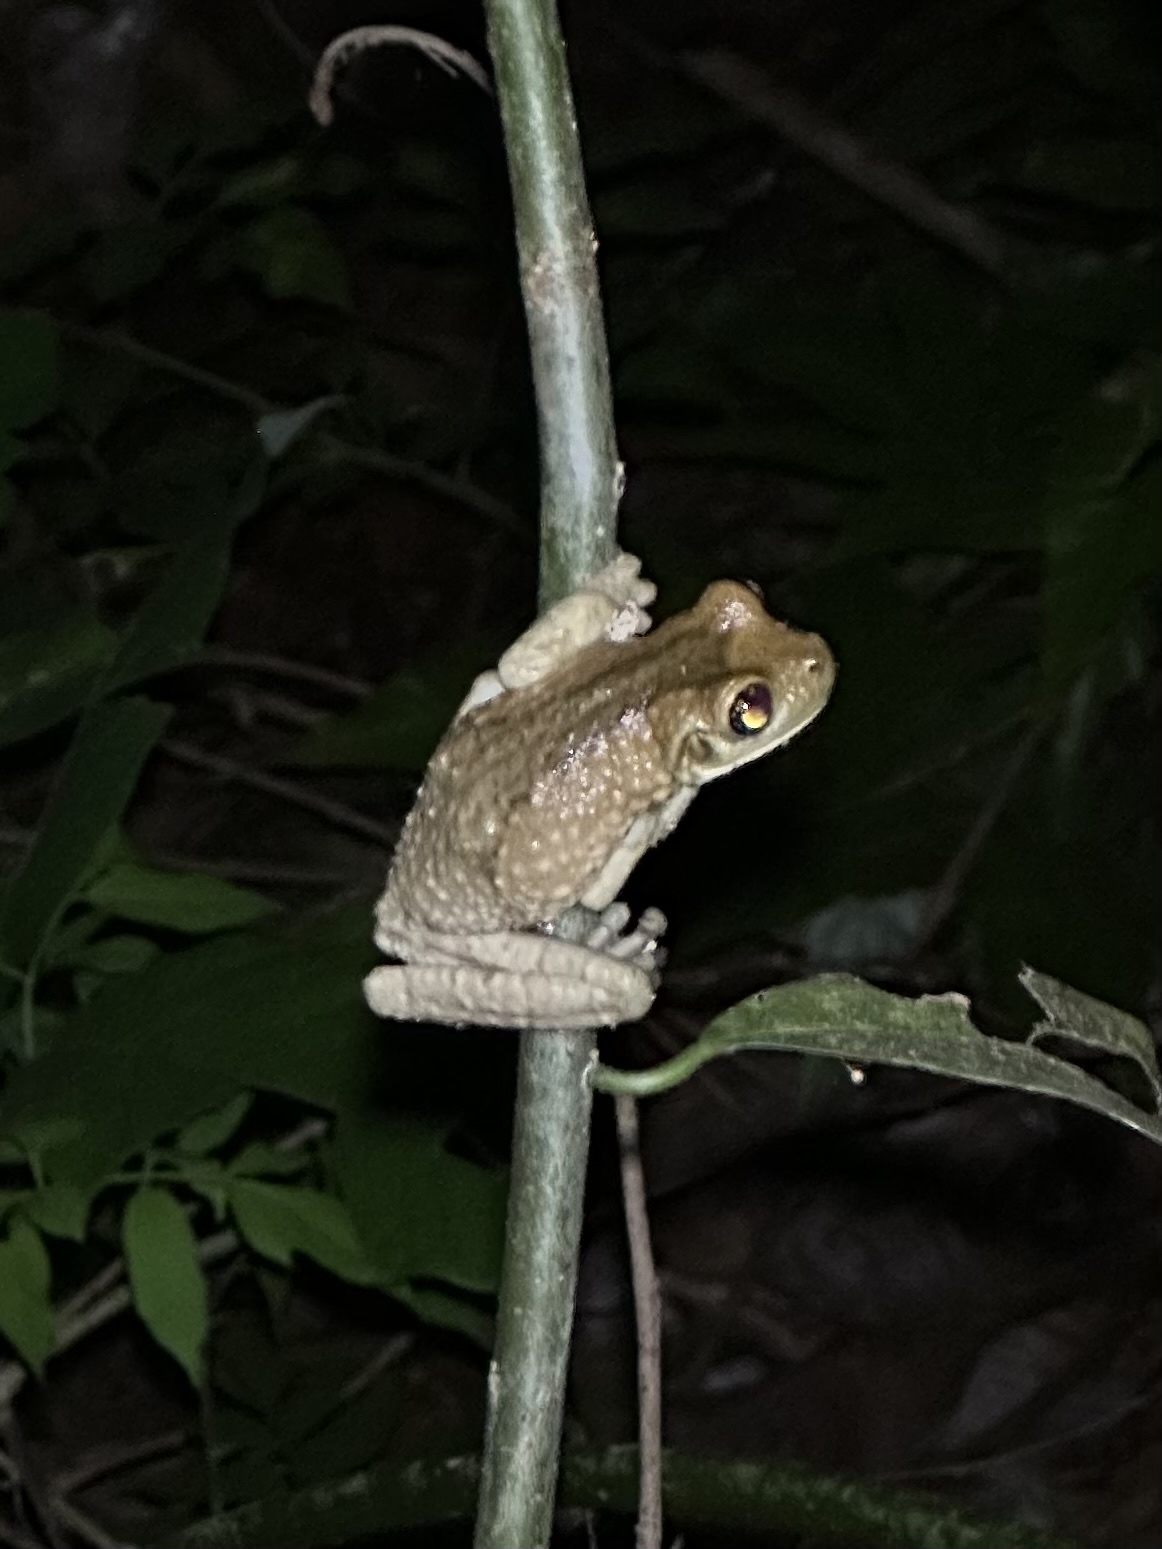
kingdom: Animalia
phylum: Chordata
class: Amphibia
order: Anura
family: Hylidae
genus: Trachycephalus
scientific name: Trachycephalus vermiculatus
